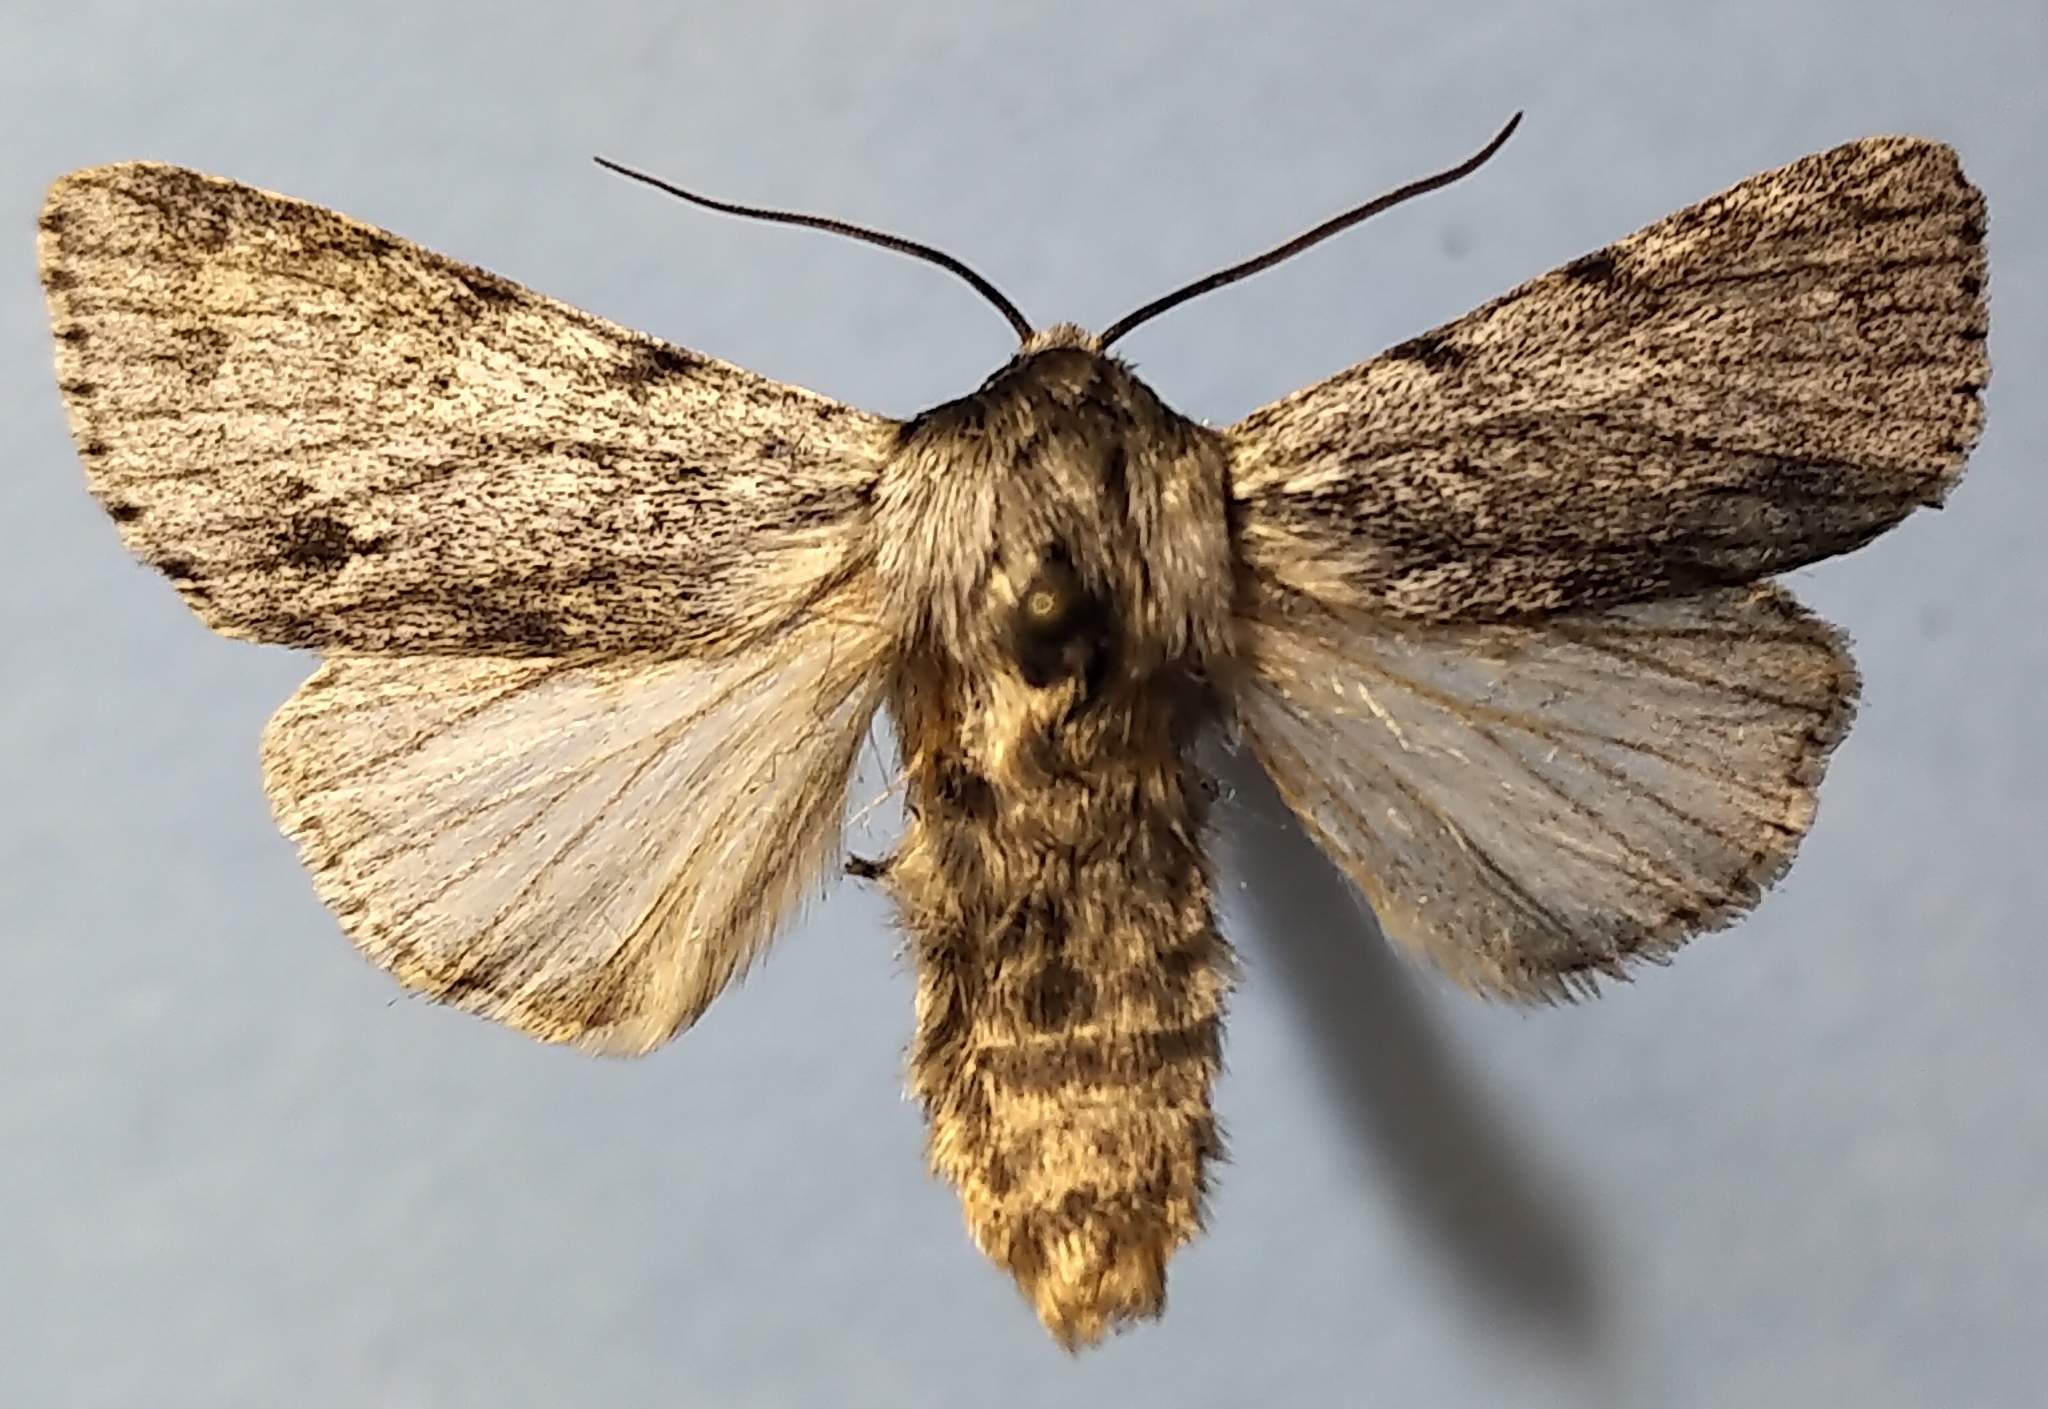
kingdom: Animalia
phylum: Arthropoda
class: Insecta
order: Lepidoptera
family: Noctuidae
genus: Acronicta
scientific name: Acronicta lepusculina
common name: Cottonwood dagger
